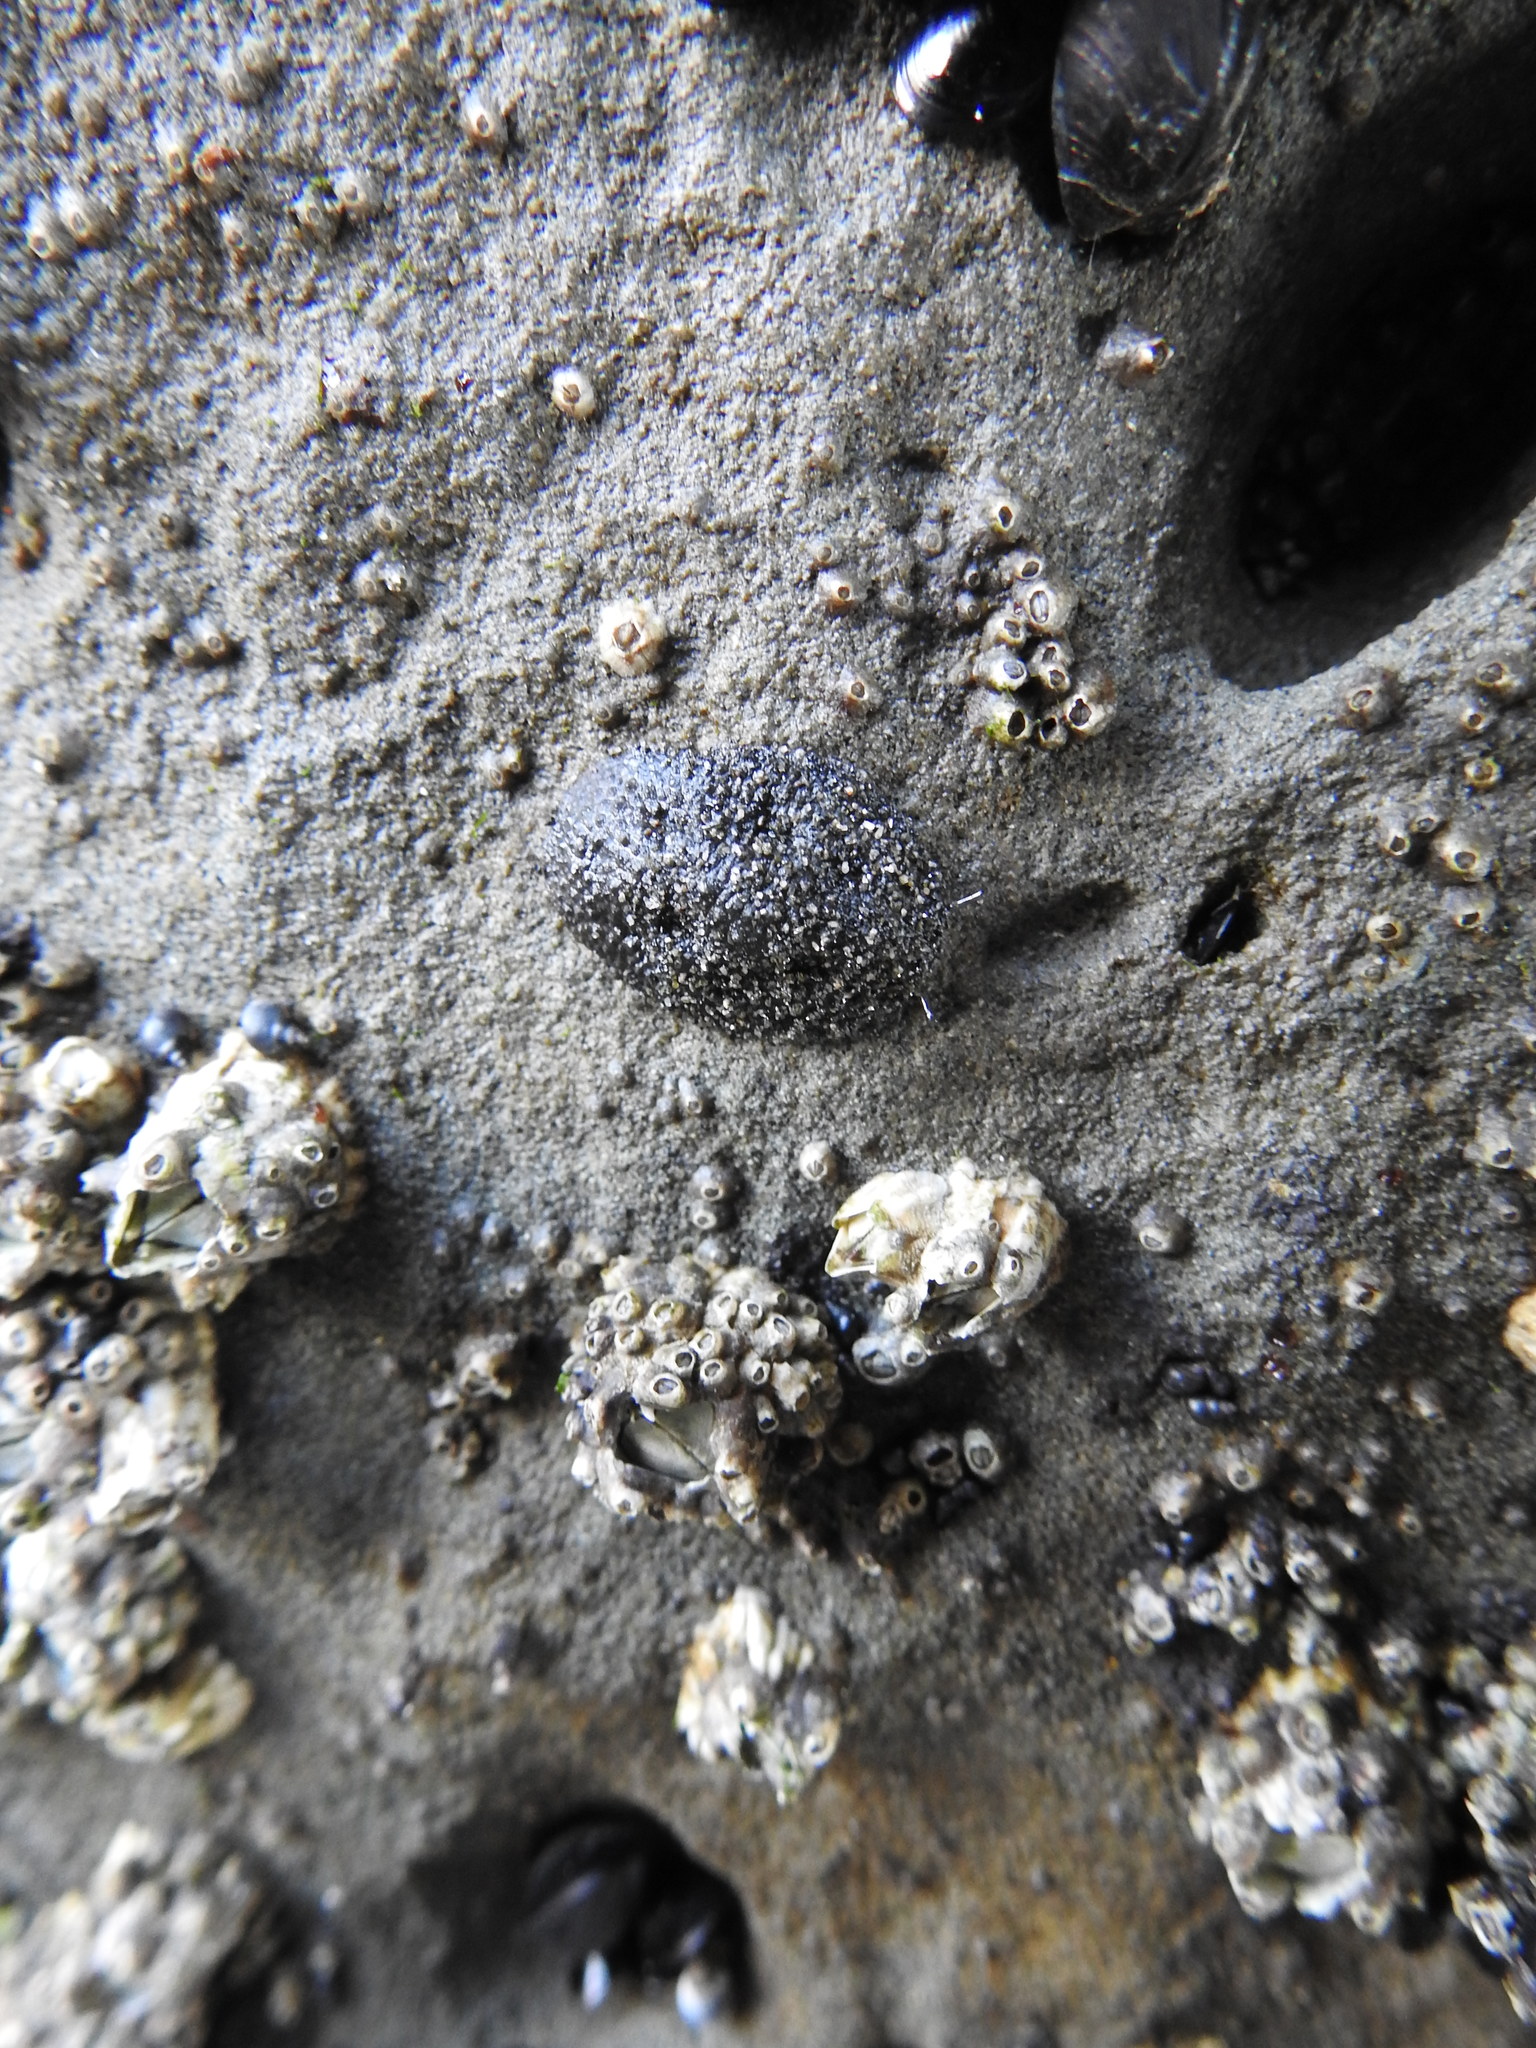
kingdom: Animalia
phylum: Mollusca
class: Gastropoda
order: Systellommatophora
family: Onchidiidae
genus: Onchidella
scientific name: Onchidella nigricans
